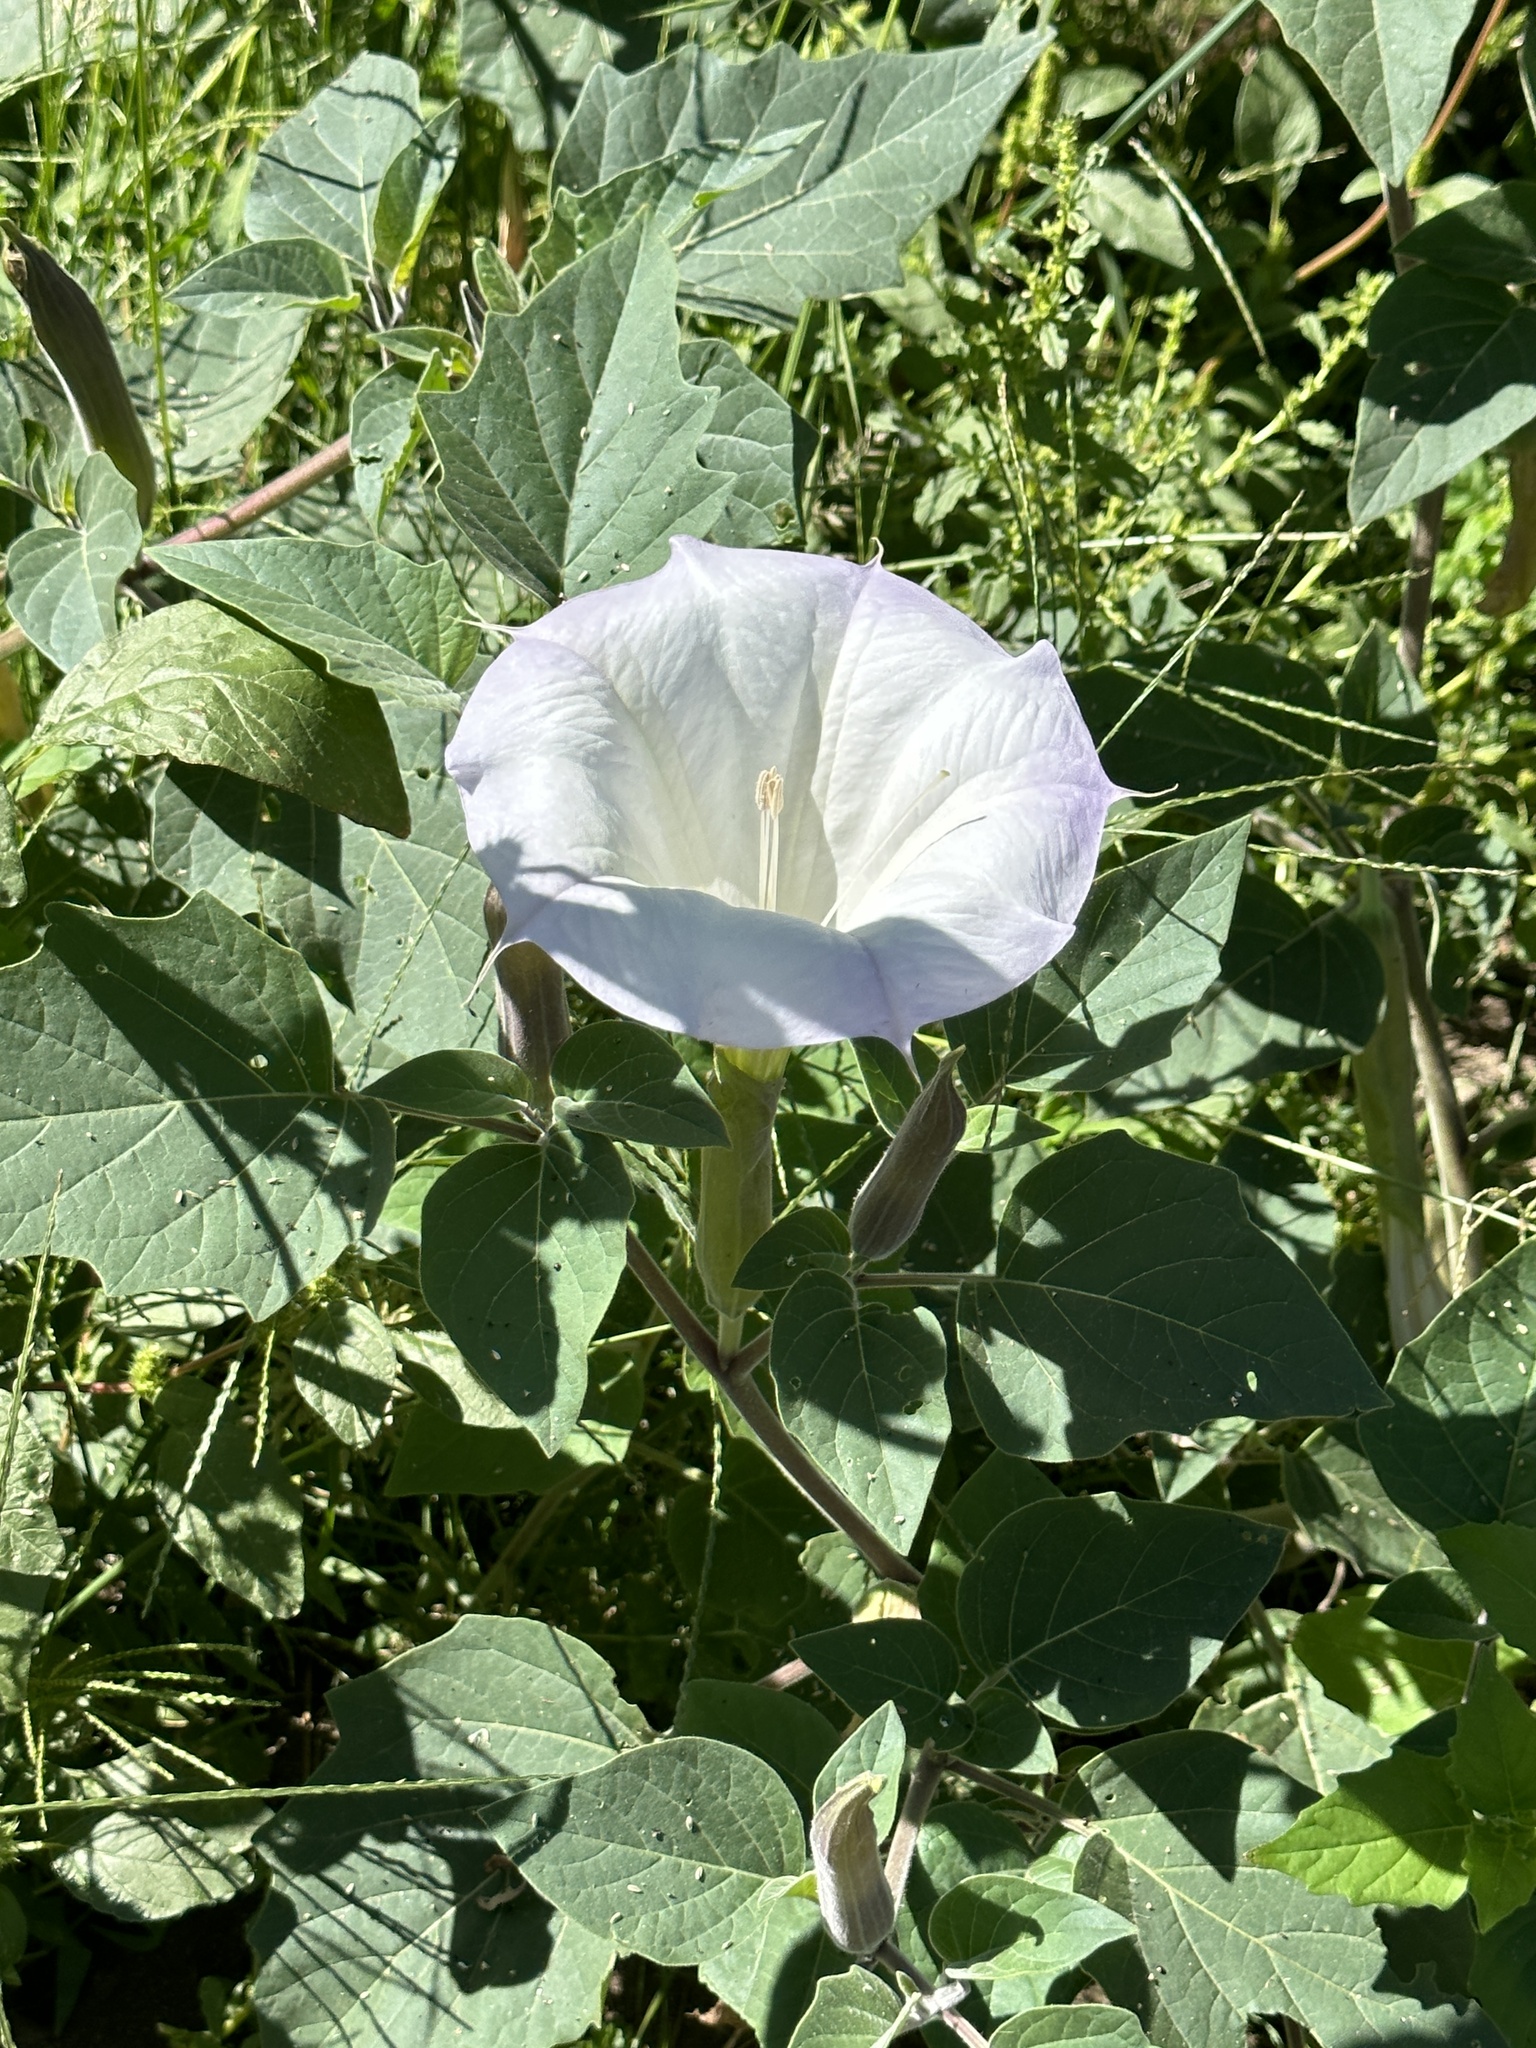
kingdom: Plantae
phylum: Tracheophyta
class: Magnoliopsida
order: Solanales
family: Solanaceae
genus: Datura
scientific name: Datura wrightii
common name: Sacred thorn-apple
